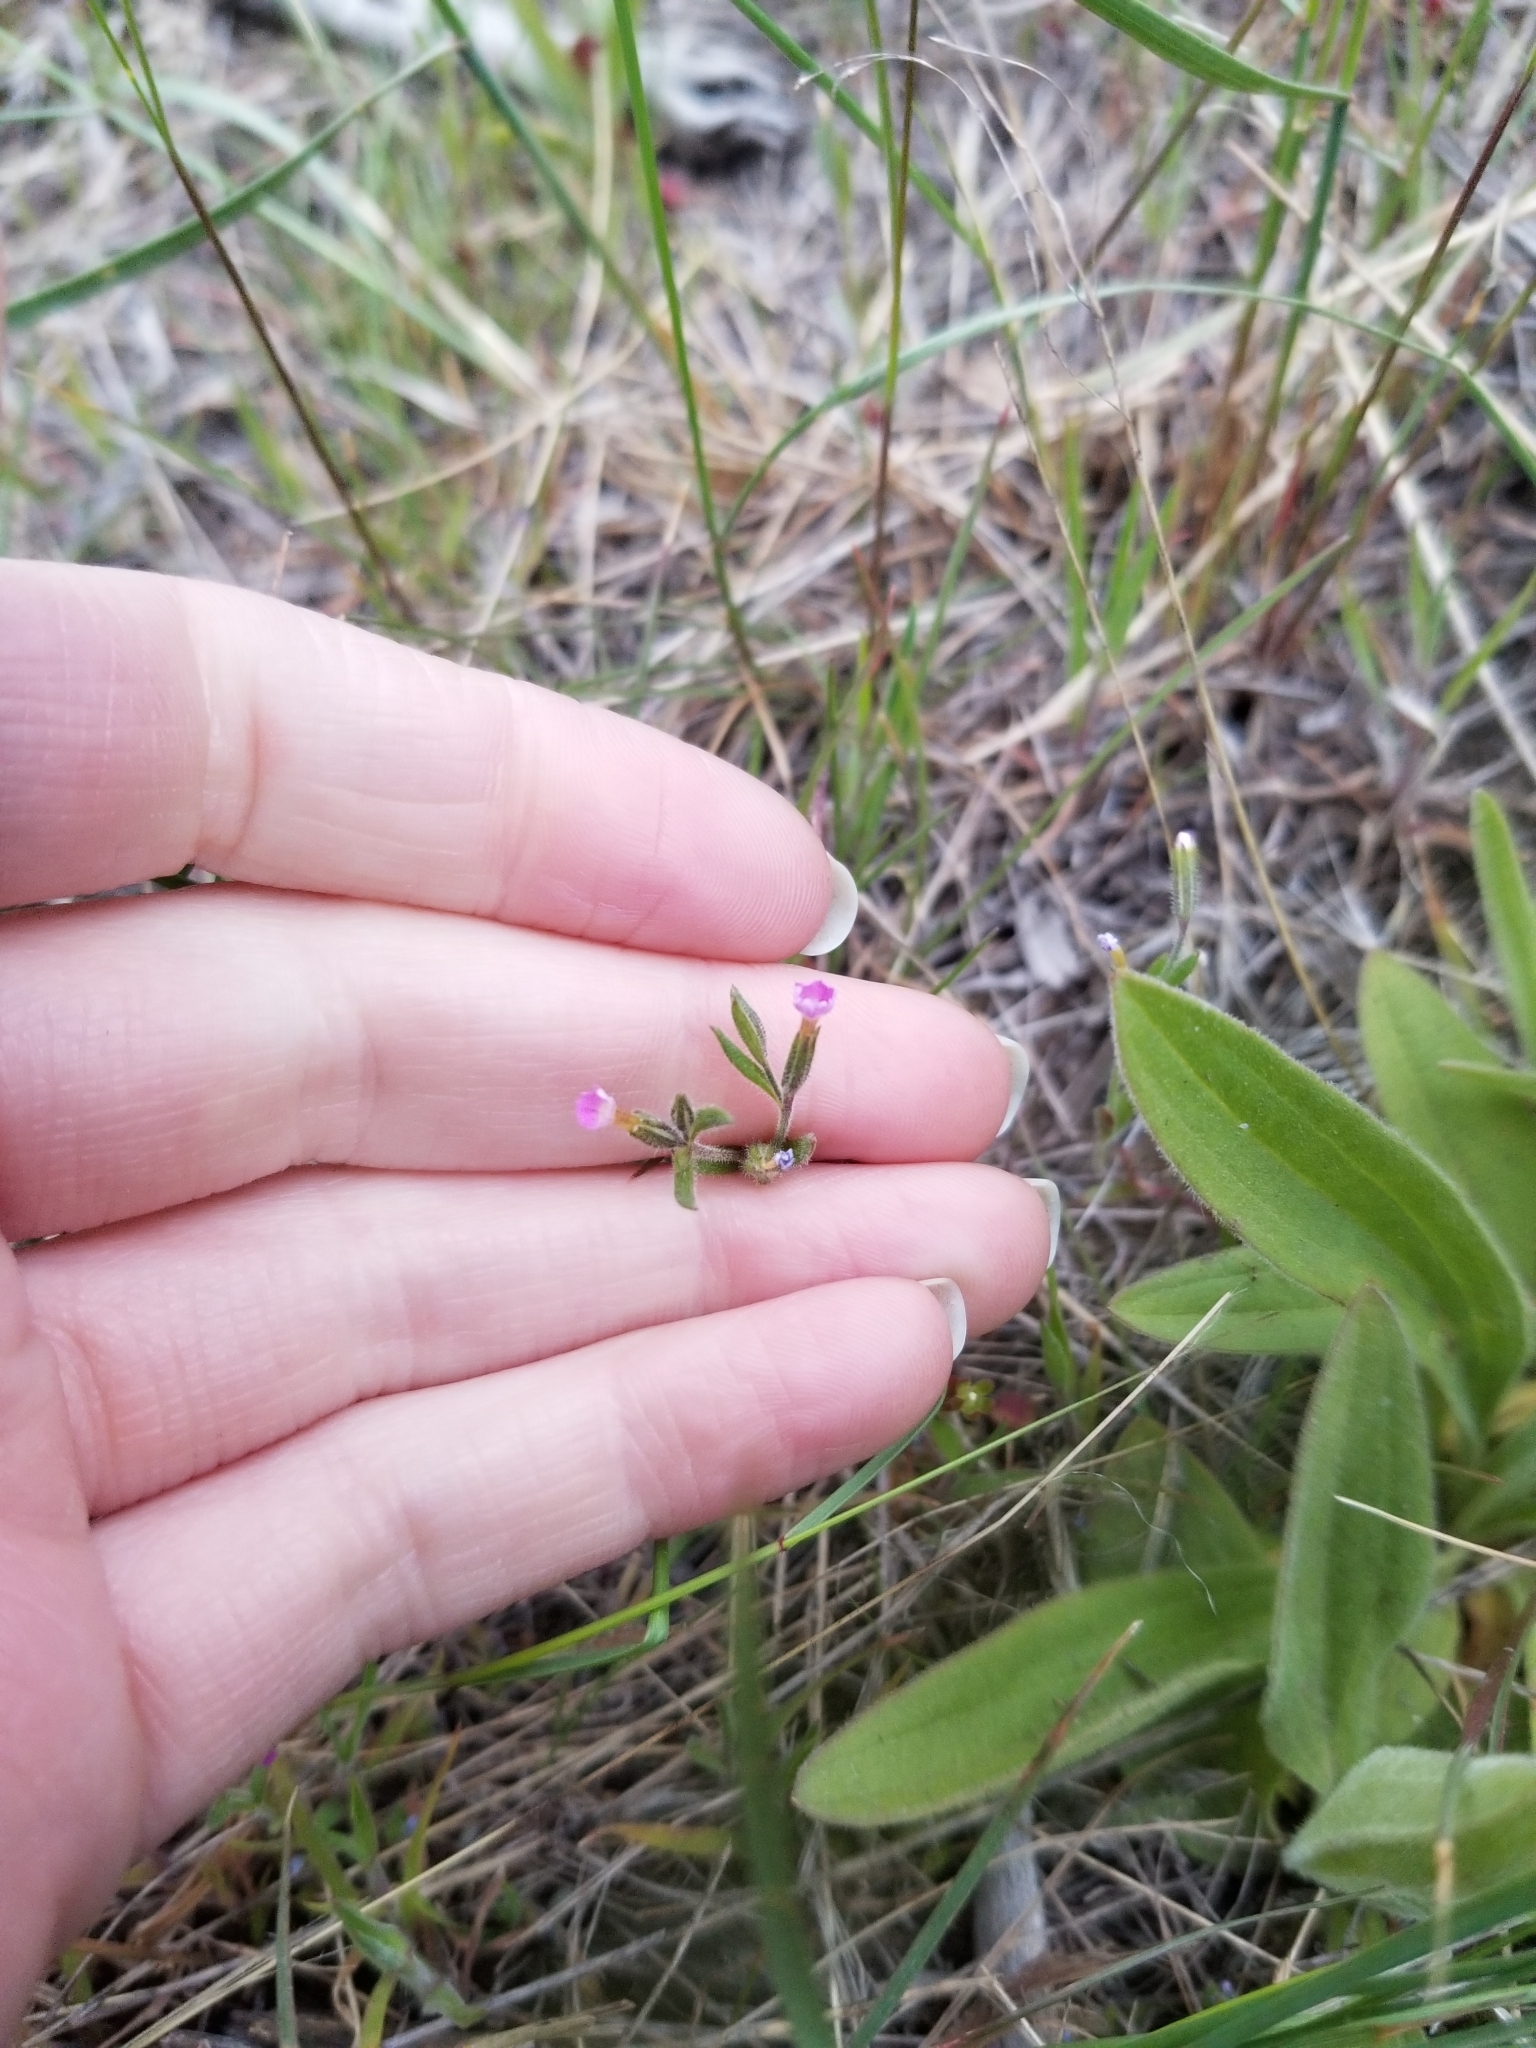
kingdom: Plantae
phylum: Tracheophyta
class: Magnoliopsida
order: Ericales
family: Polemoniaceae
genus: Phlox
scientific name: Phlox gracilis
